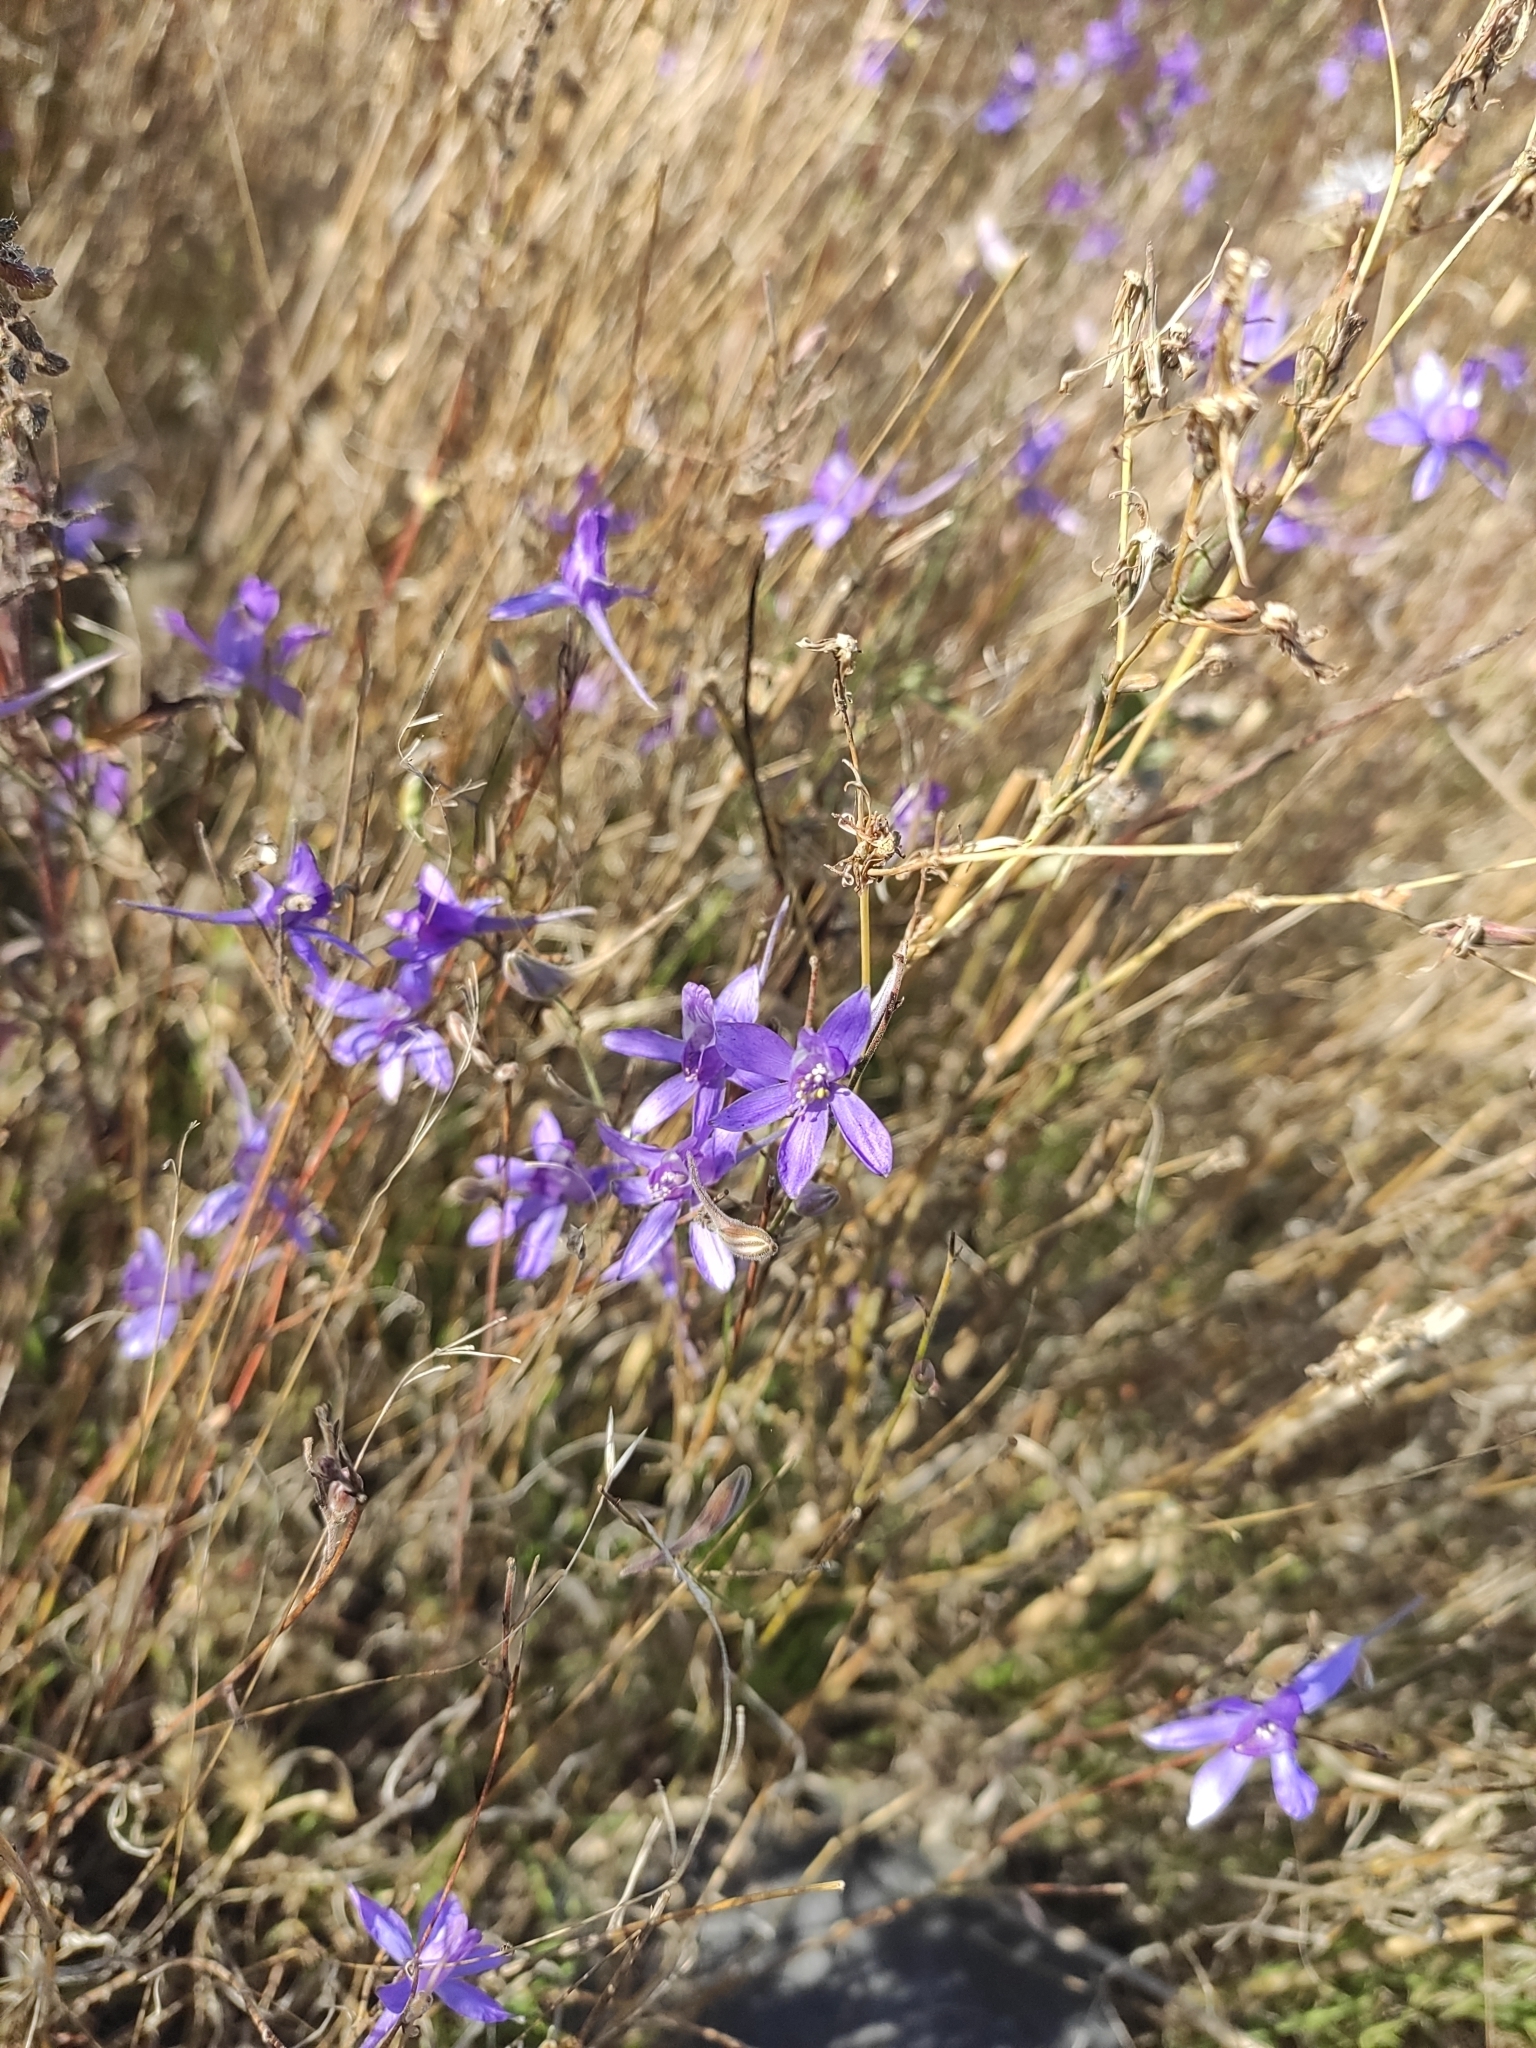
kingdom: Plantae
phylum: Tracheophyta
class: Magnoliopsida
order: Ranunculales
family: Ranunculaceae
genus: Delphinium
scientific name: Delphinium consolida
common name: Branching larkspur
